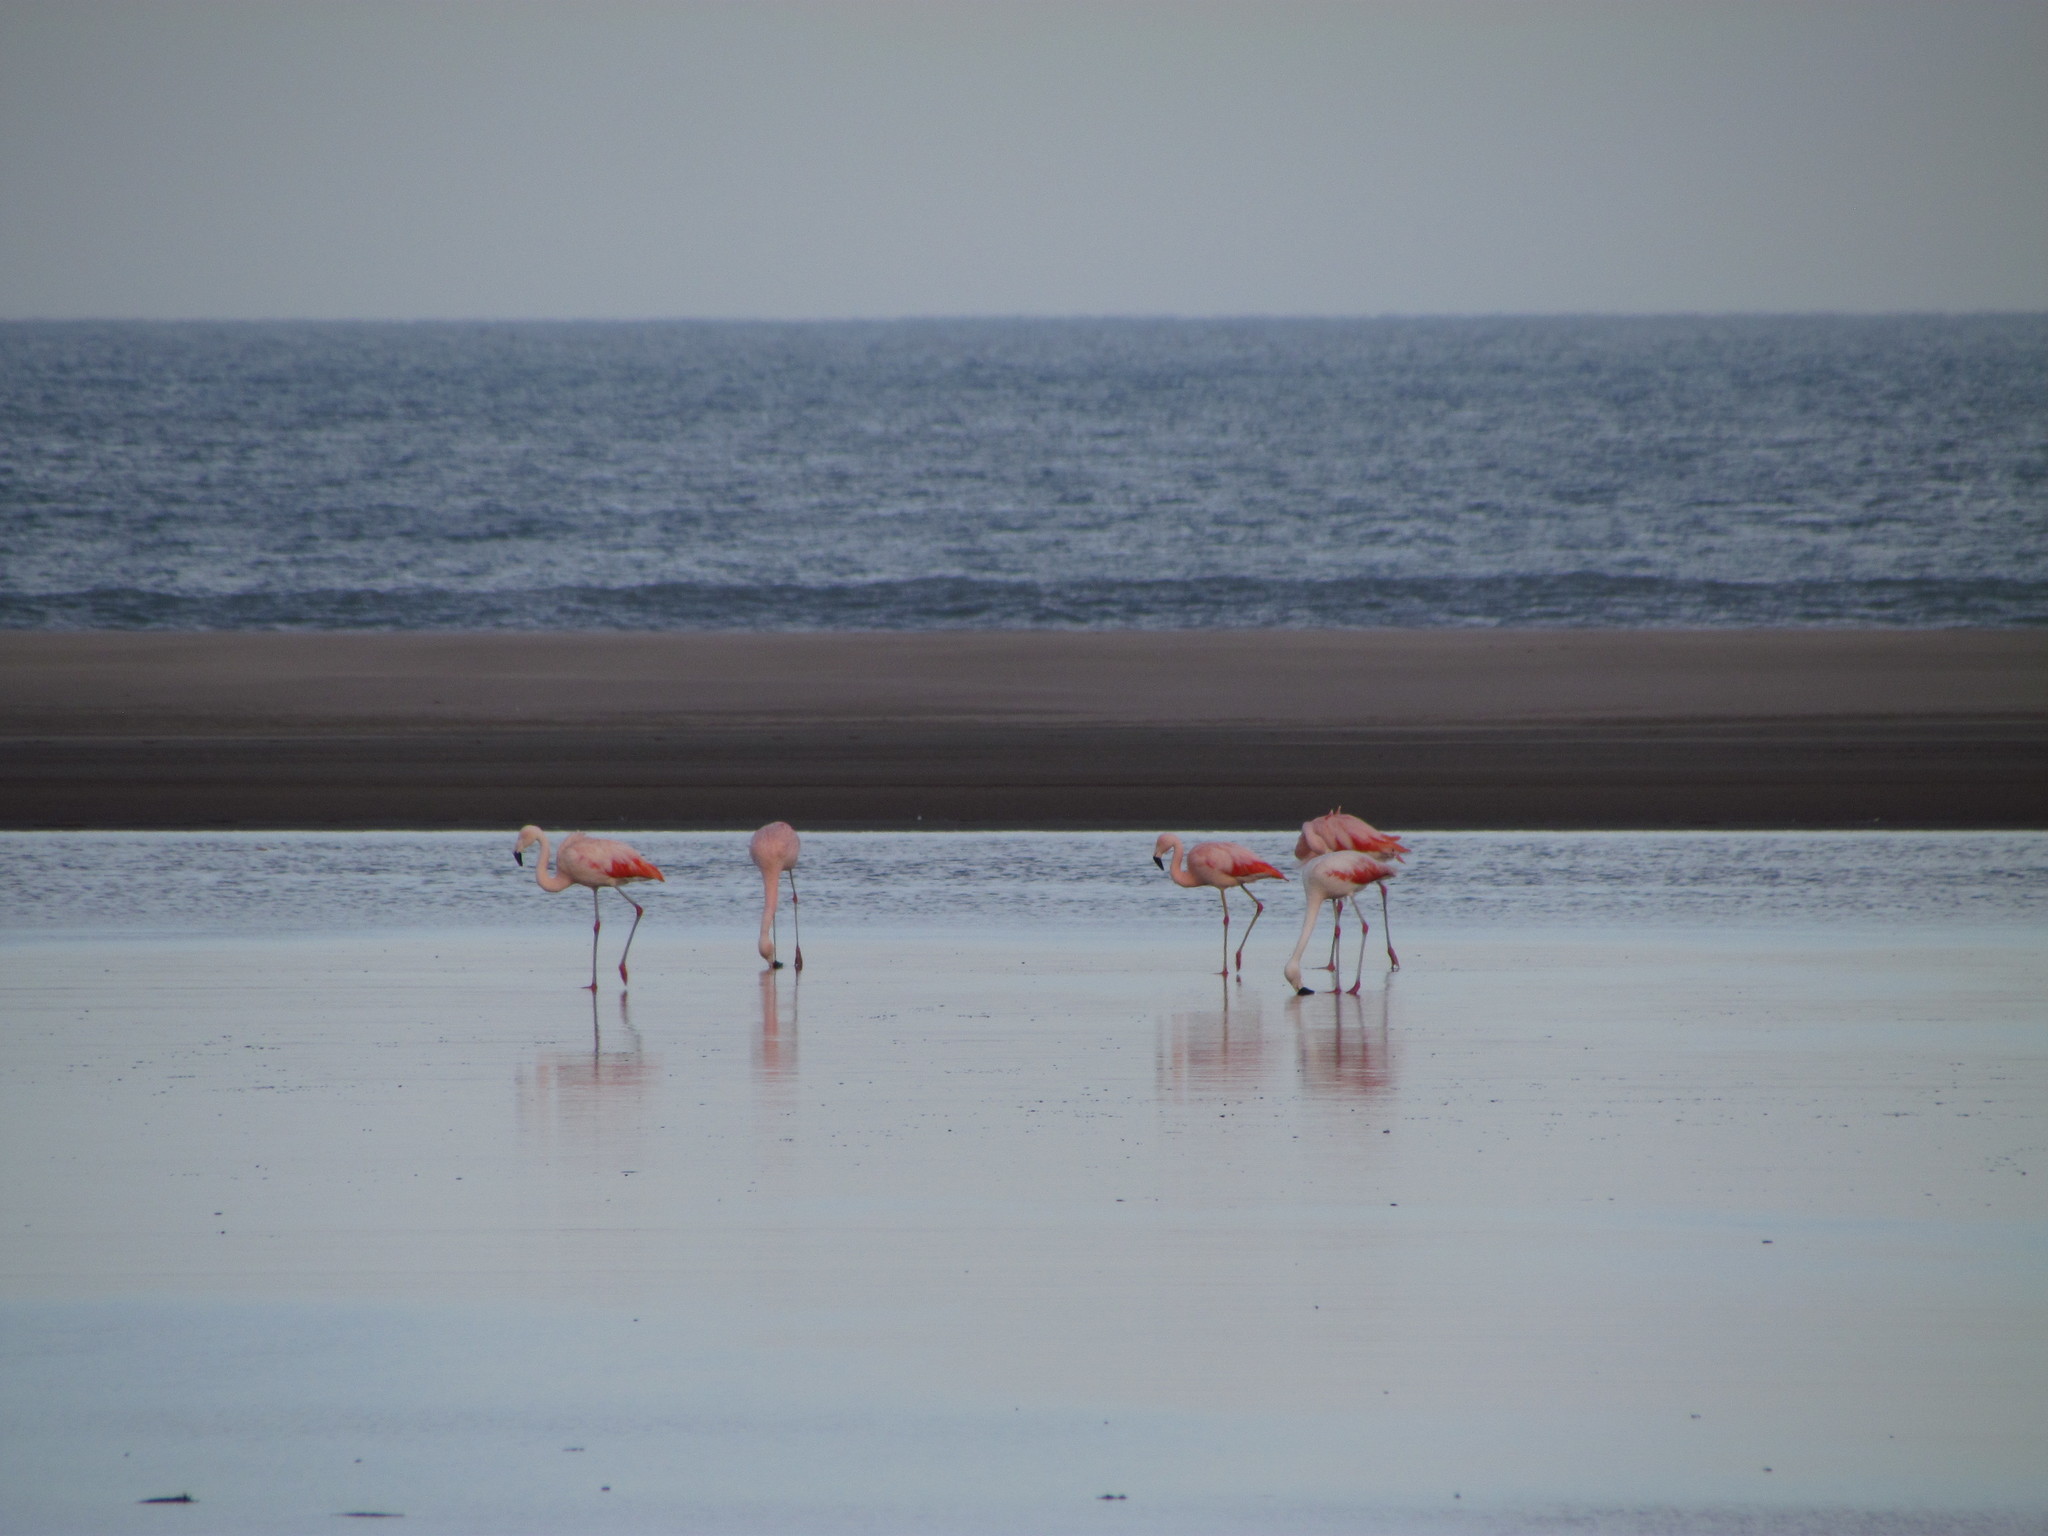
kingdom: Animalia
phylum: Chordata
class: Aves
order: Phoenicopteriformes
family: Phoenicopteridae
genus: Phoenicopterus
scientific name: Phoenicopterus chilensis
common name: Chilean flamingo
